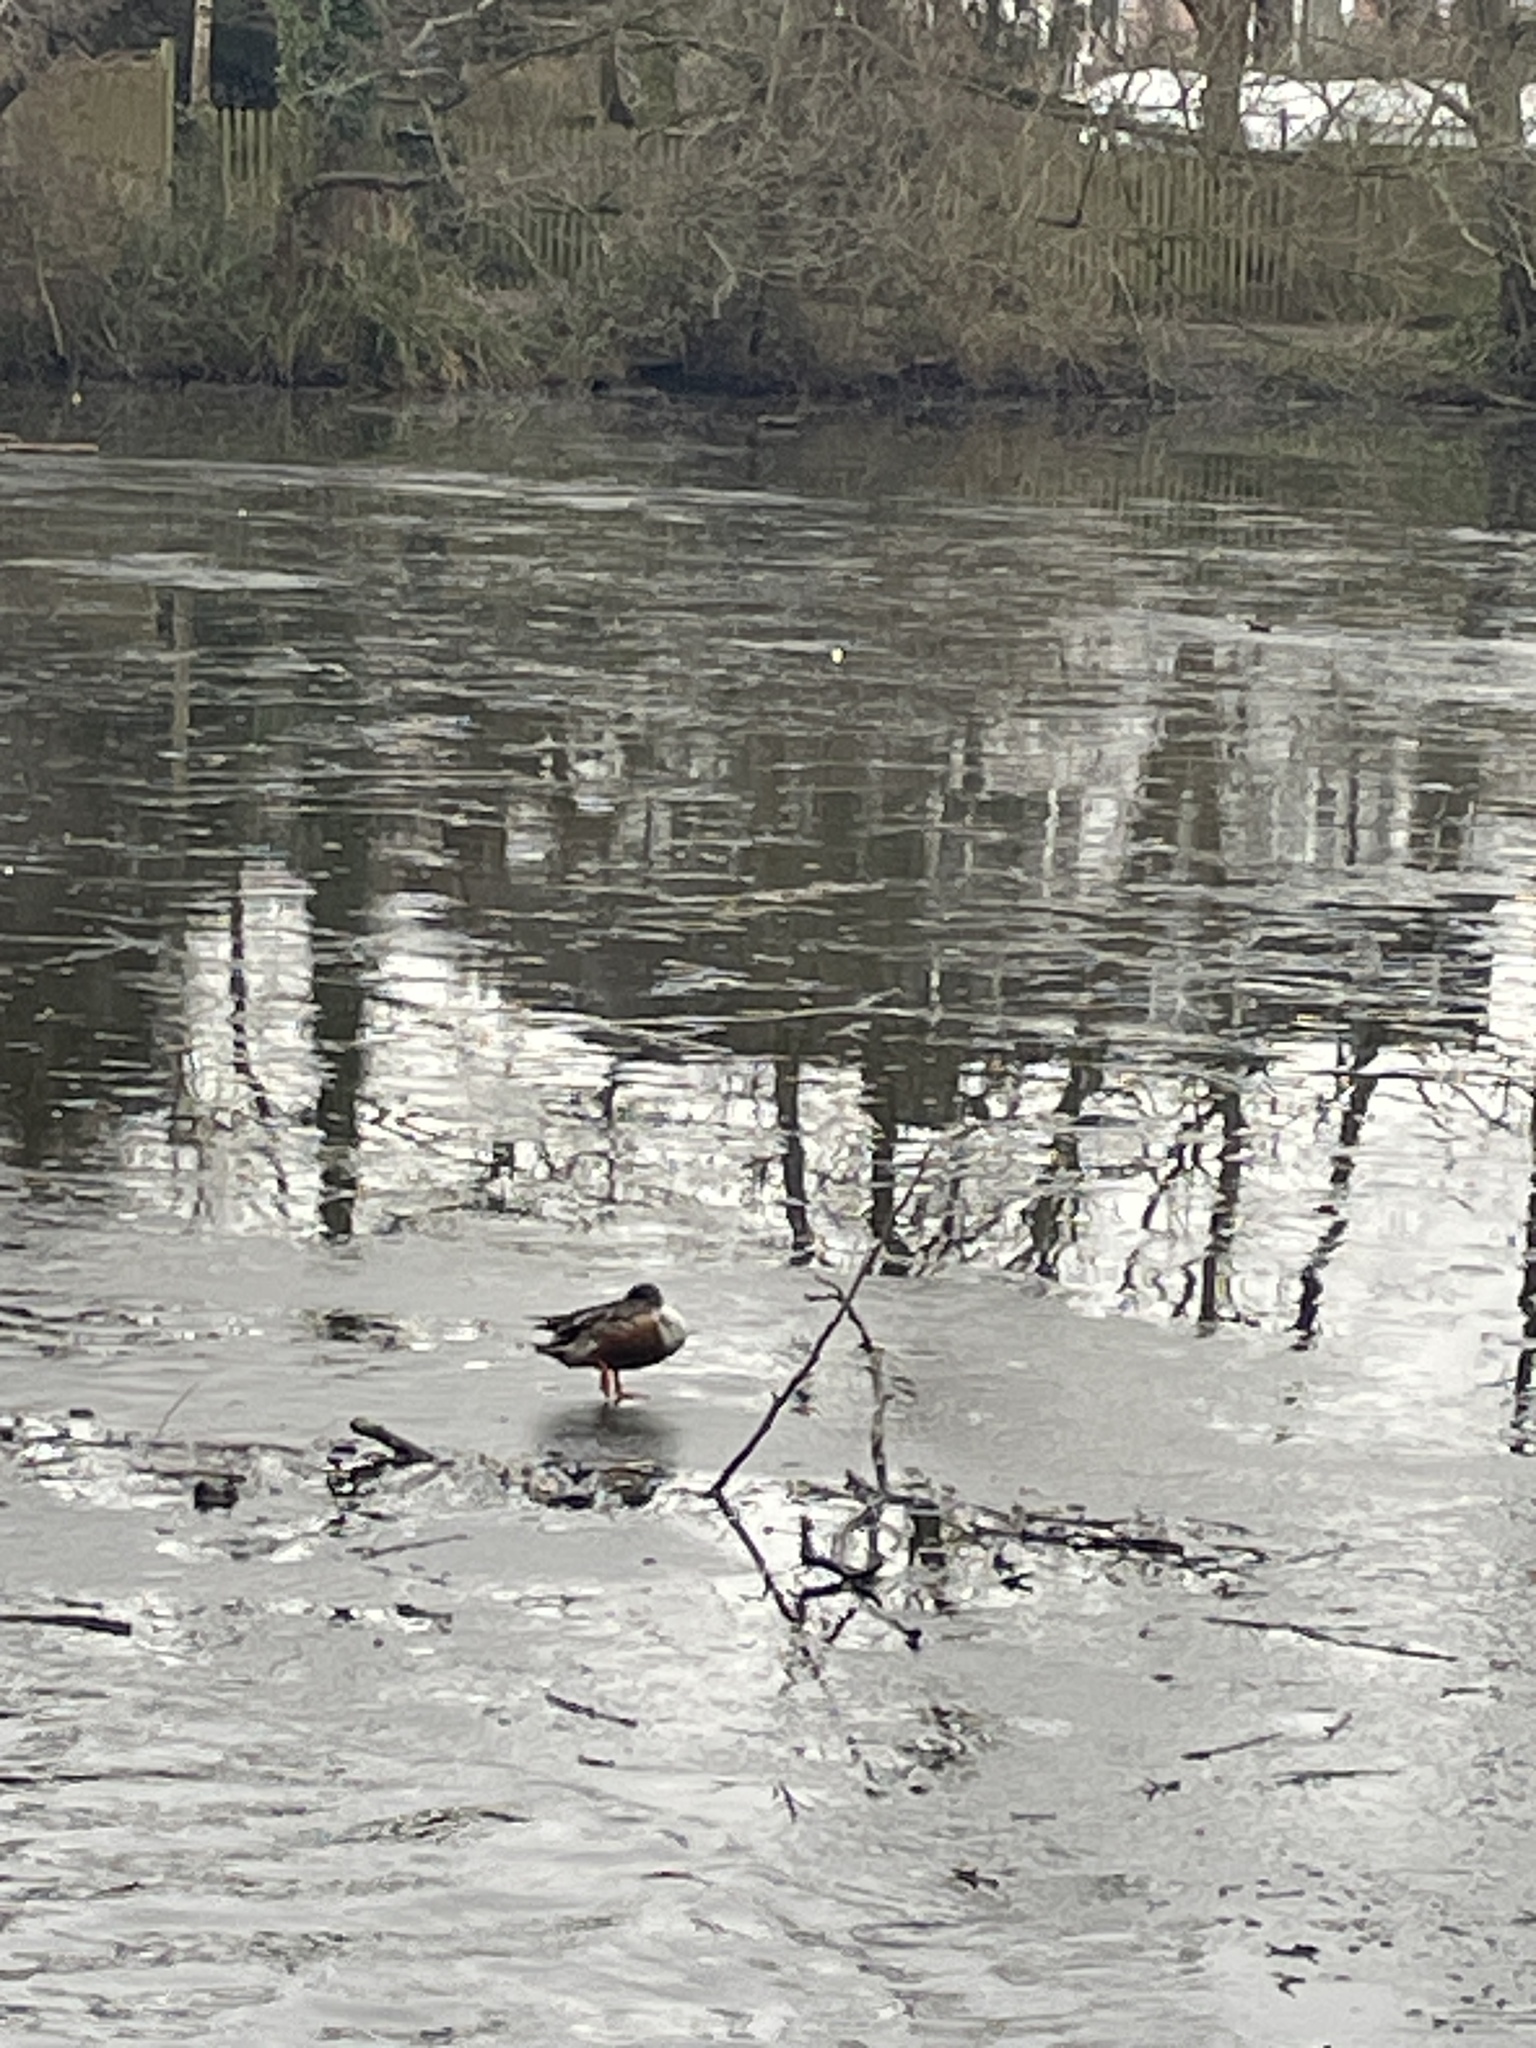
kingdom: Animalia
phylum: Chordata
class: Aves
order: Anseriformes
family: Anatidae
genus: Spatula
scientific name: Spatula clypeata
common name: Northern shoveler
